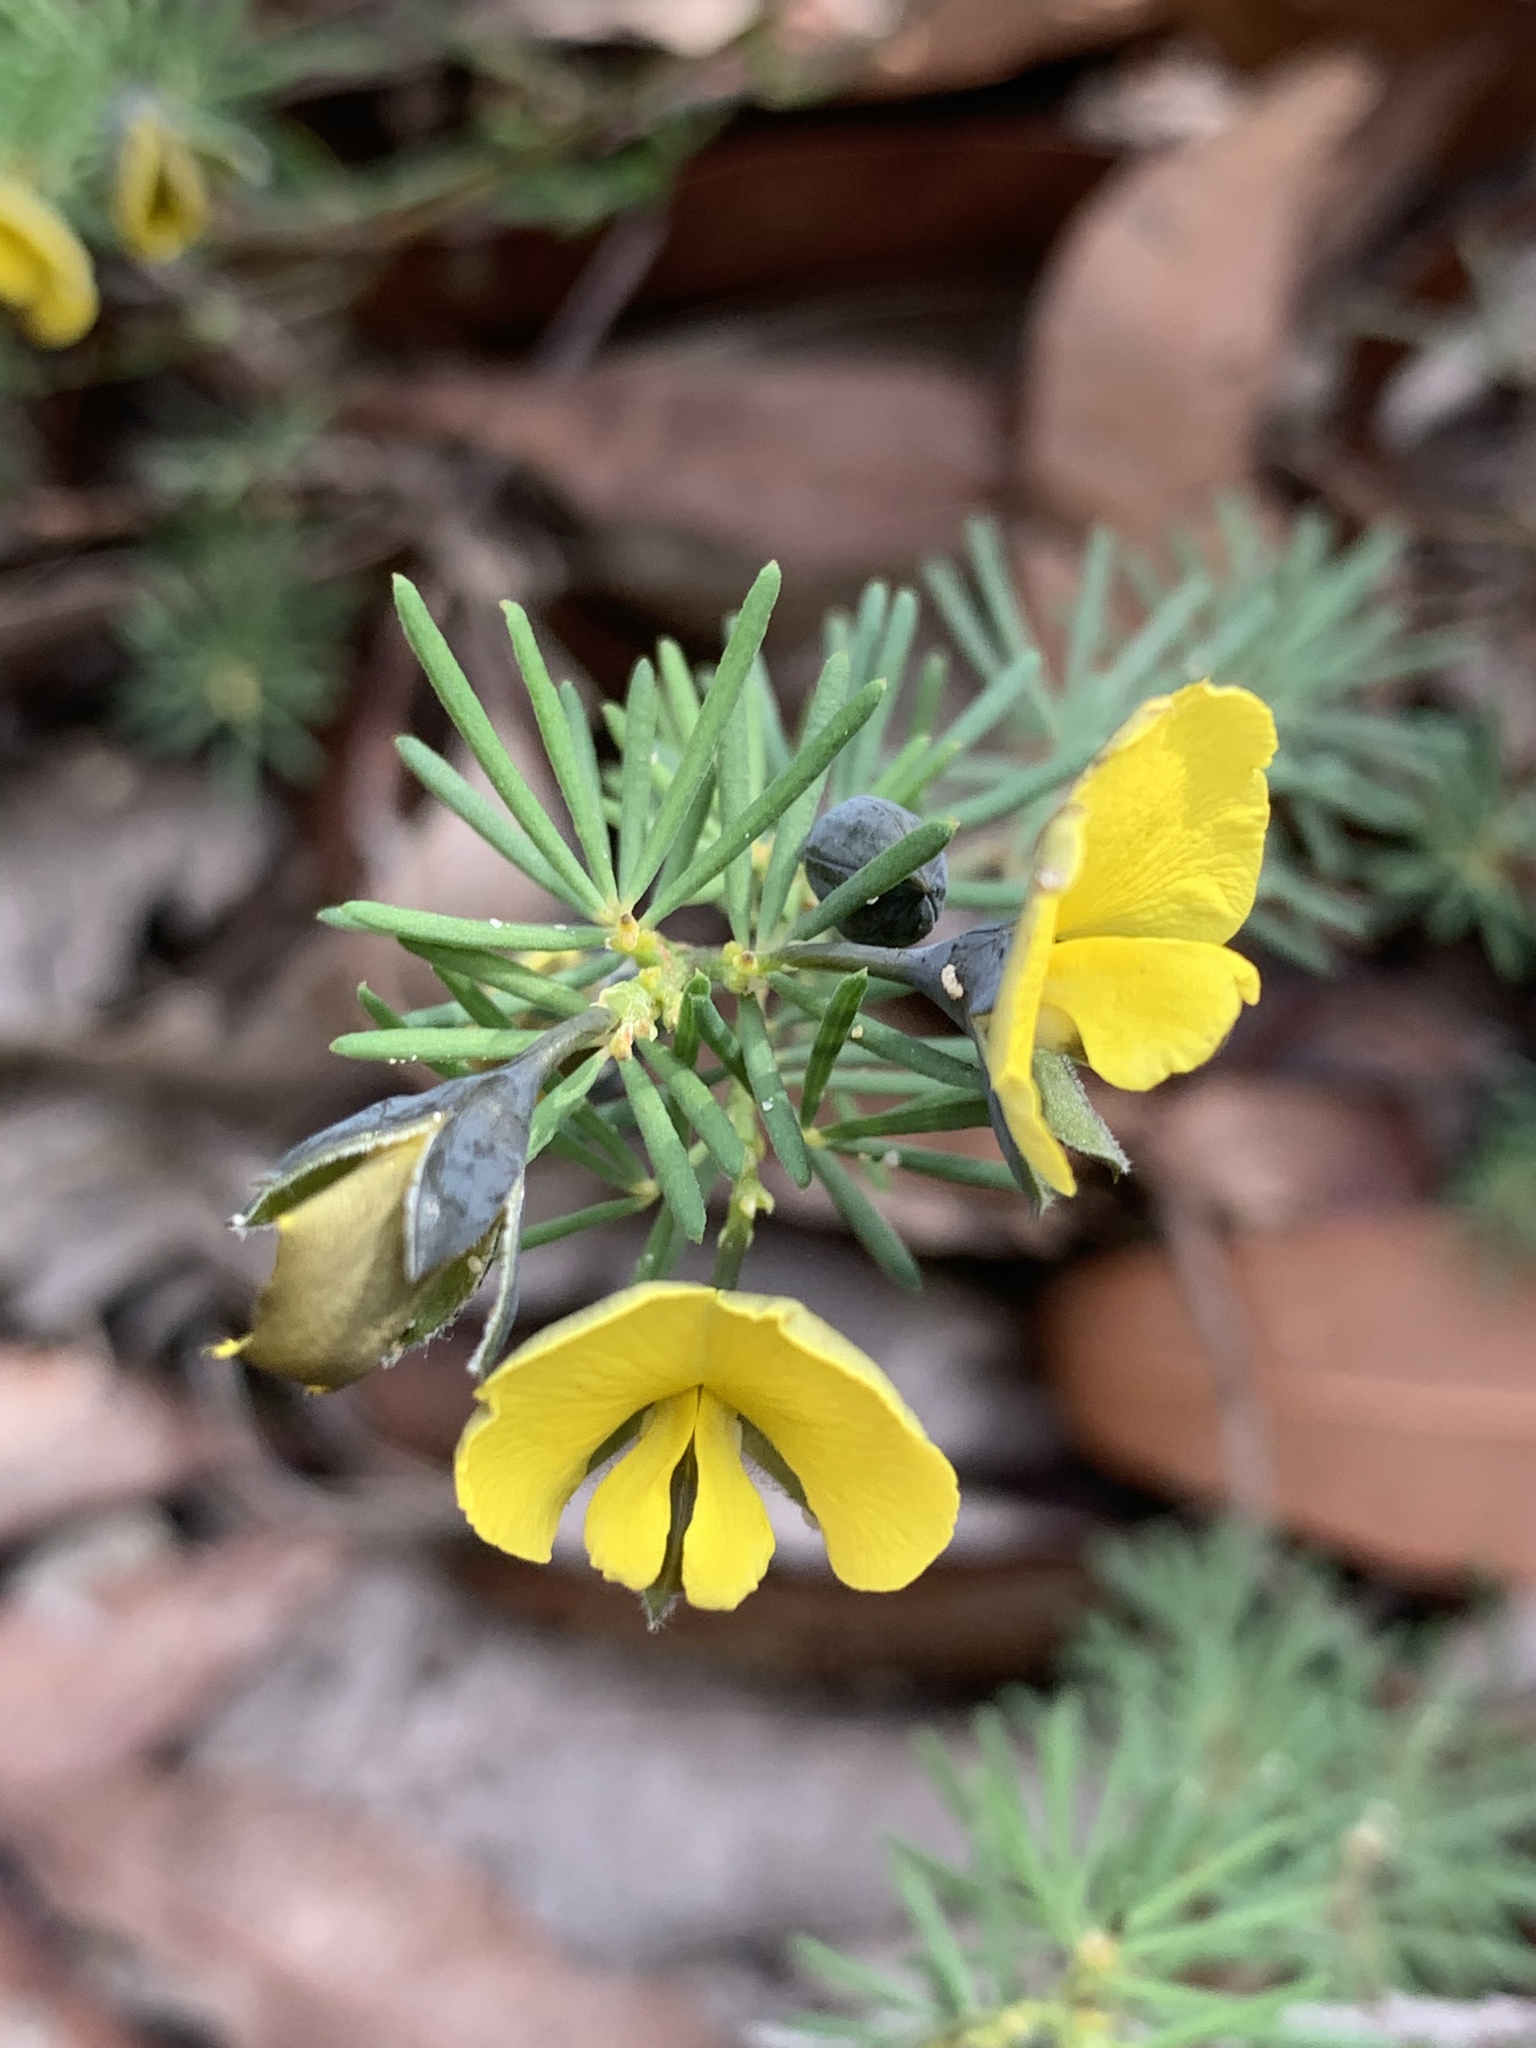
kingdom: Plantae
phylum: Tracheophyta
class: Magnoliopsida
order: Fabales
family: Fabaceae
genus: Gompholobium
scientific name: Gompholobium glabratum
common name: Dainty wedge pea
